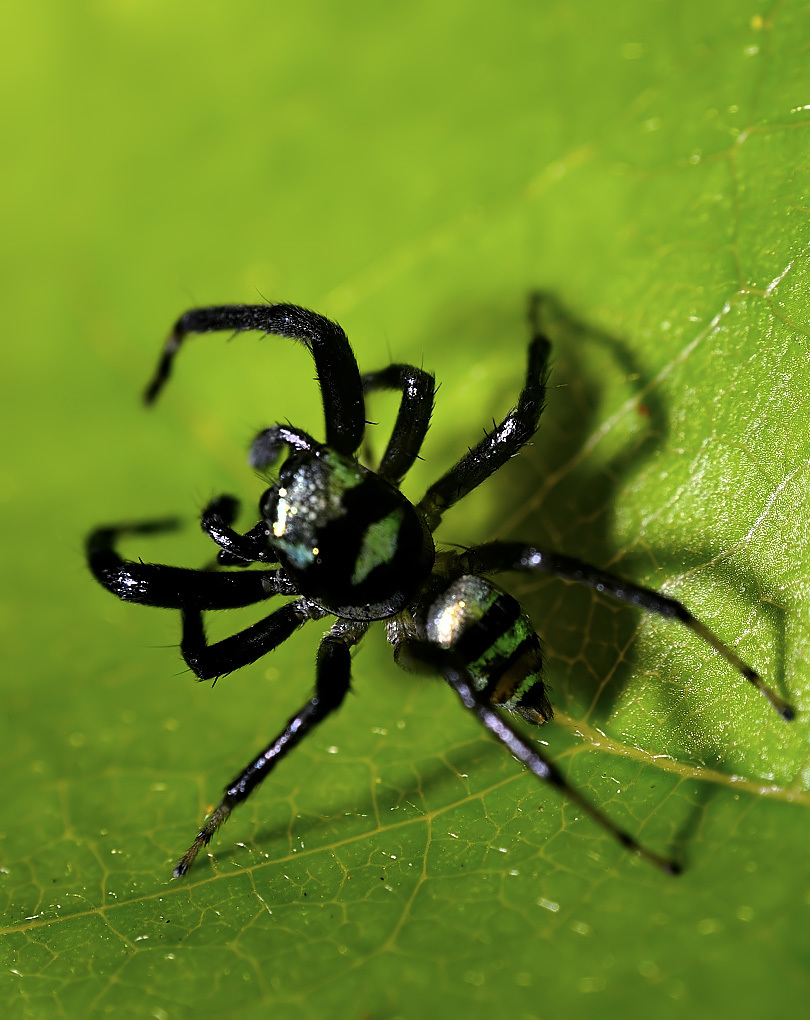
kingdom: Animalia
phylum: Arthropoda
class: Arachnida
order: Araneae
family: Salticidae
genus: Phintella
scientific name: Phintella vittata
